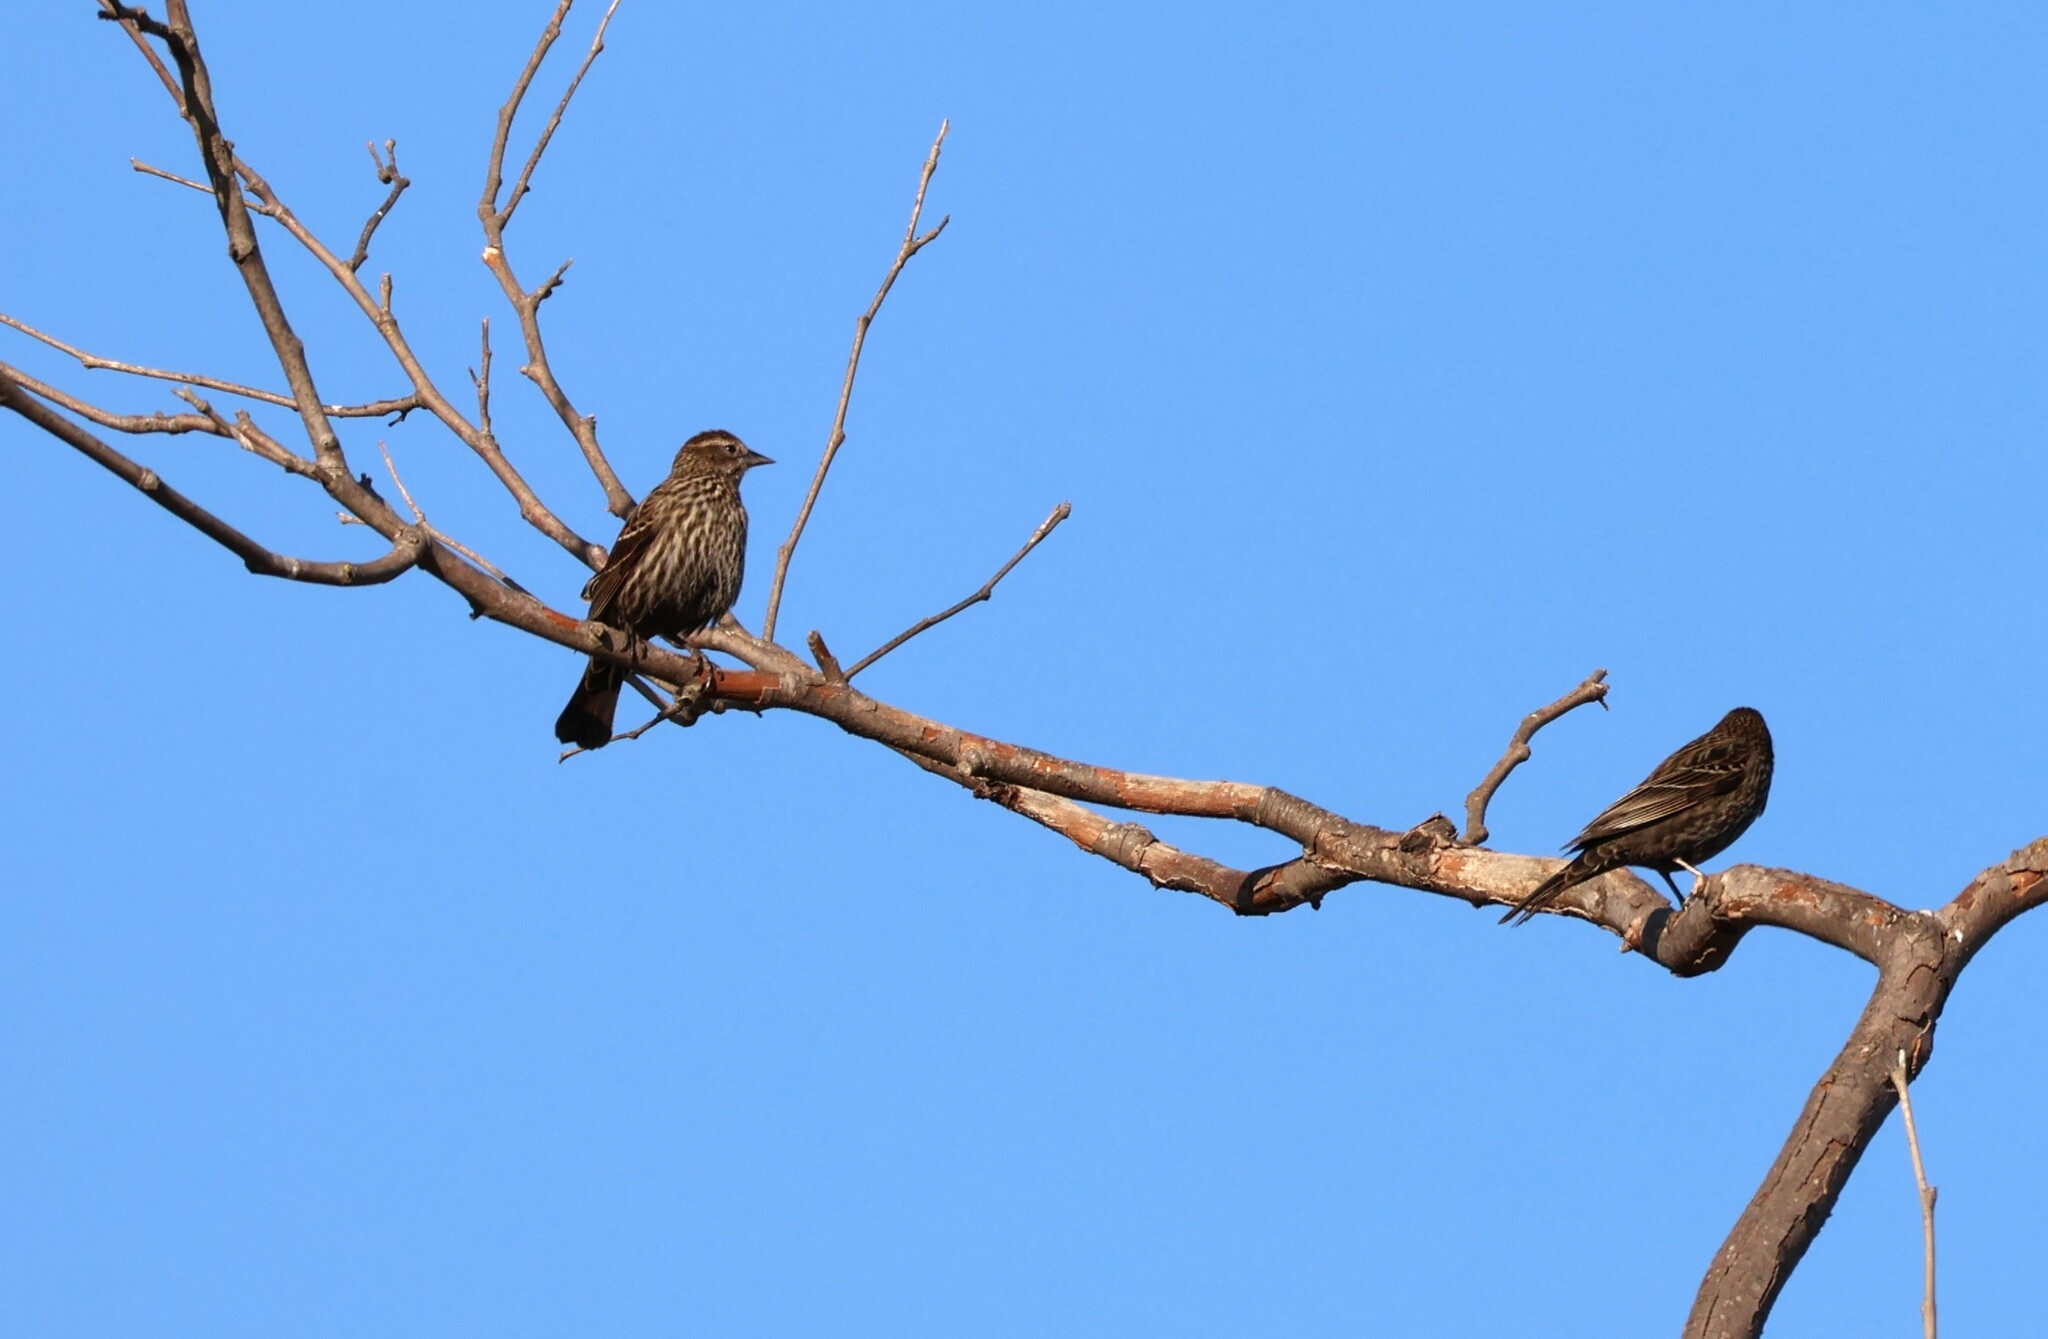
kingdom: Animalia
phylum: Chordata
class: Aves
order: Passeriformes
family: Icteridae
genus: Agelaius
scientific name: Agelaius phoeniceus
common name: Red-winged blackbird
